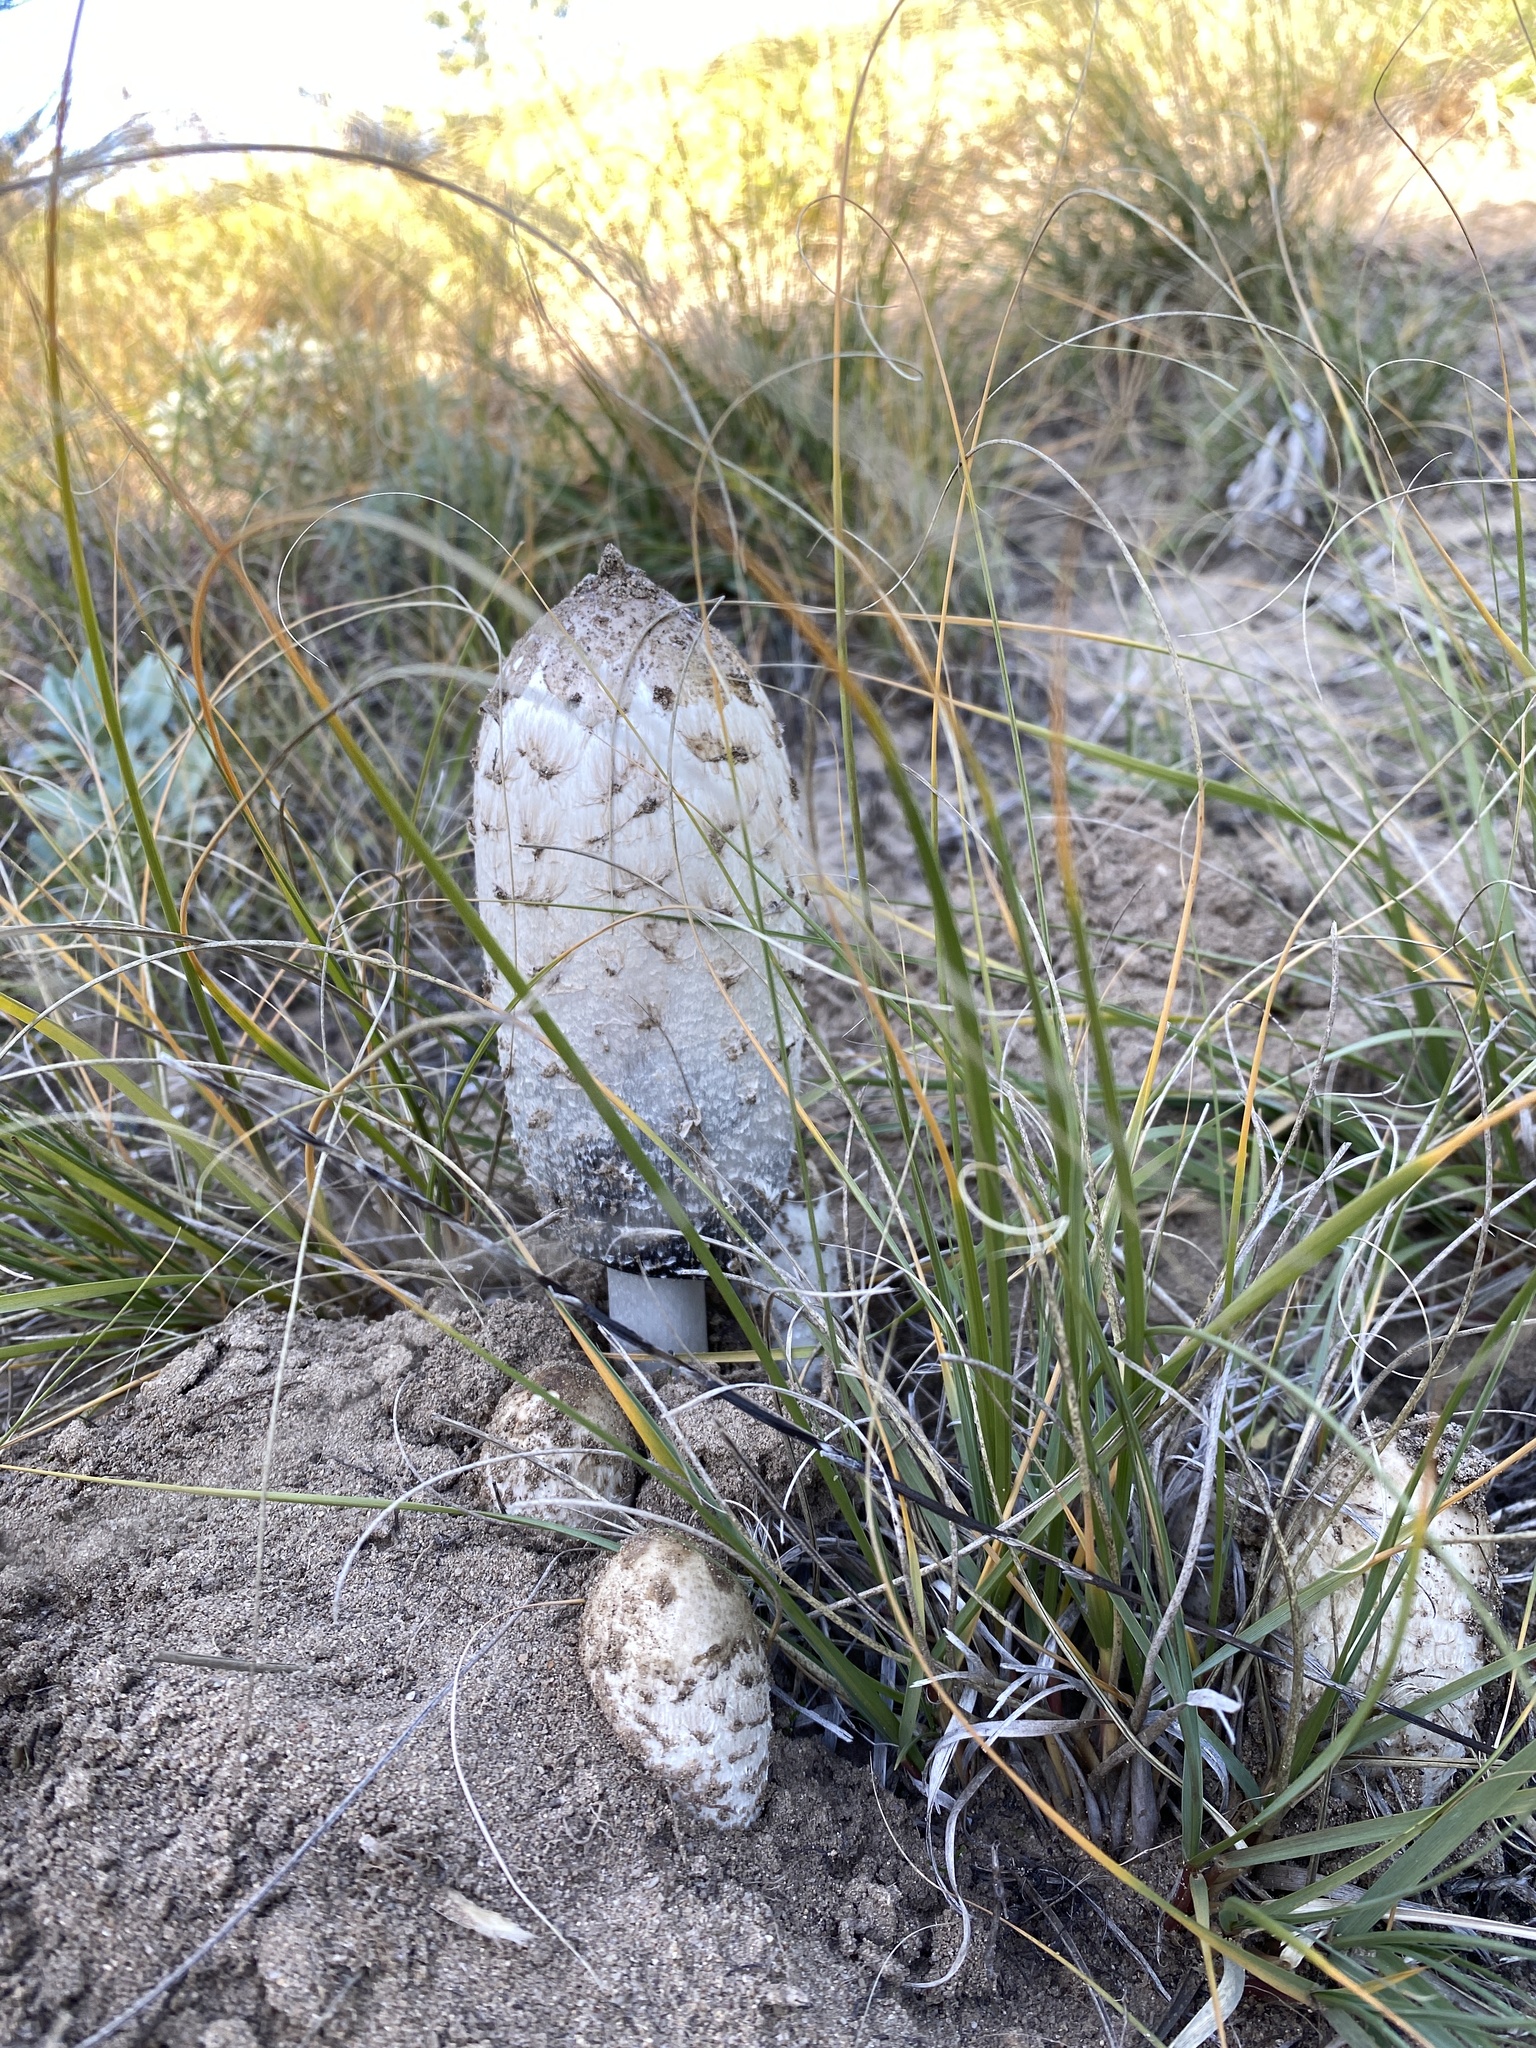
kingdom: Fungi
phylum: Basidiomycota
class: Agaricomycetes
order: Agaricales
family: Agaricaceae
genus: Coprinus
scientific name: Coprinus comatus
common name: Lawyer's wig
